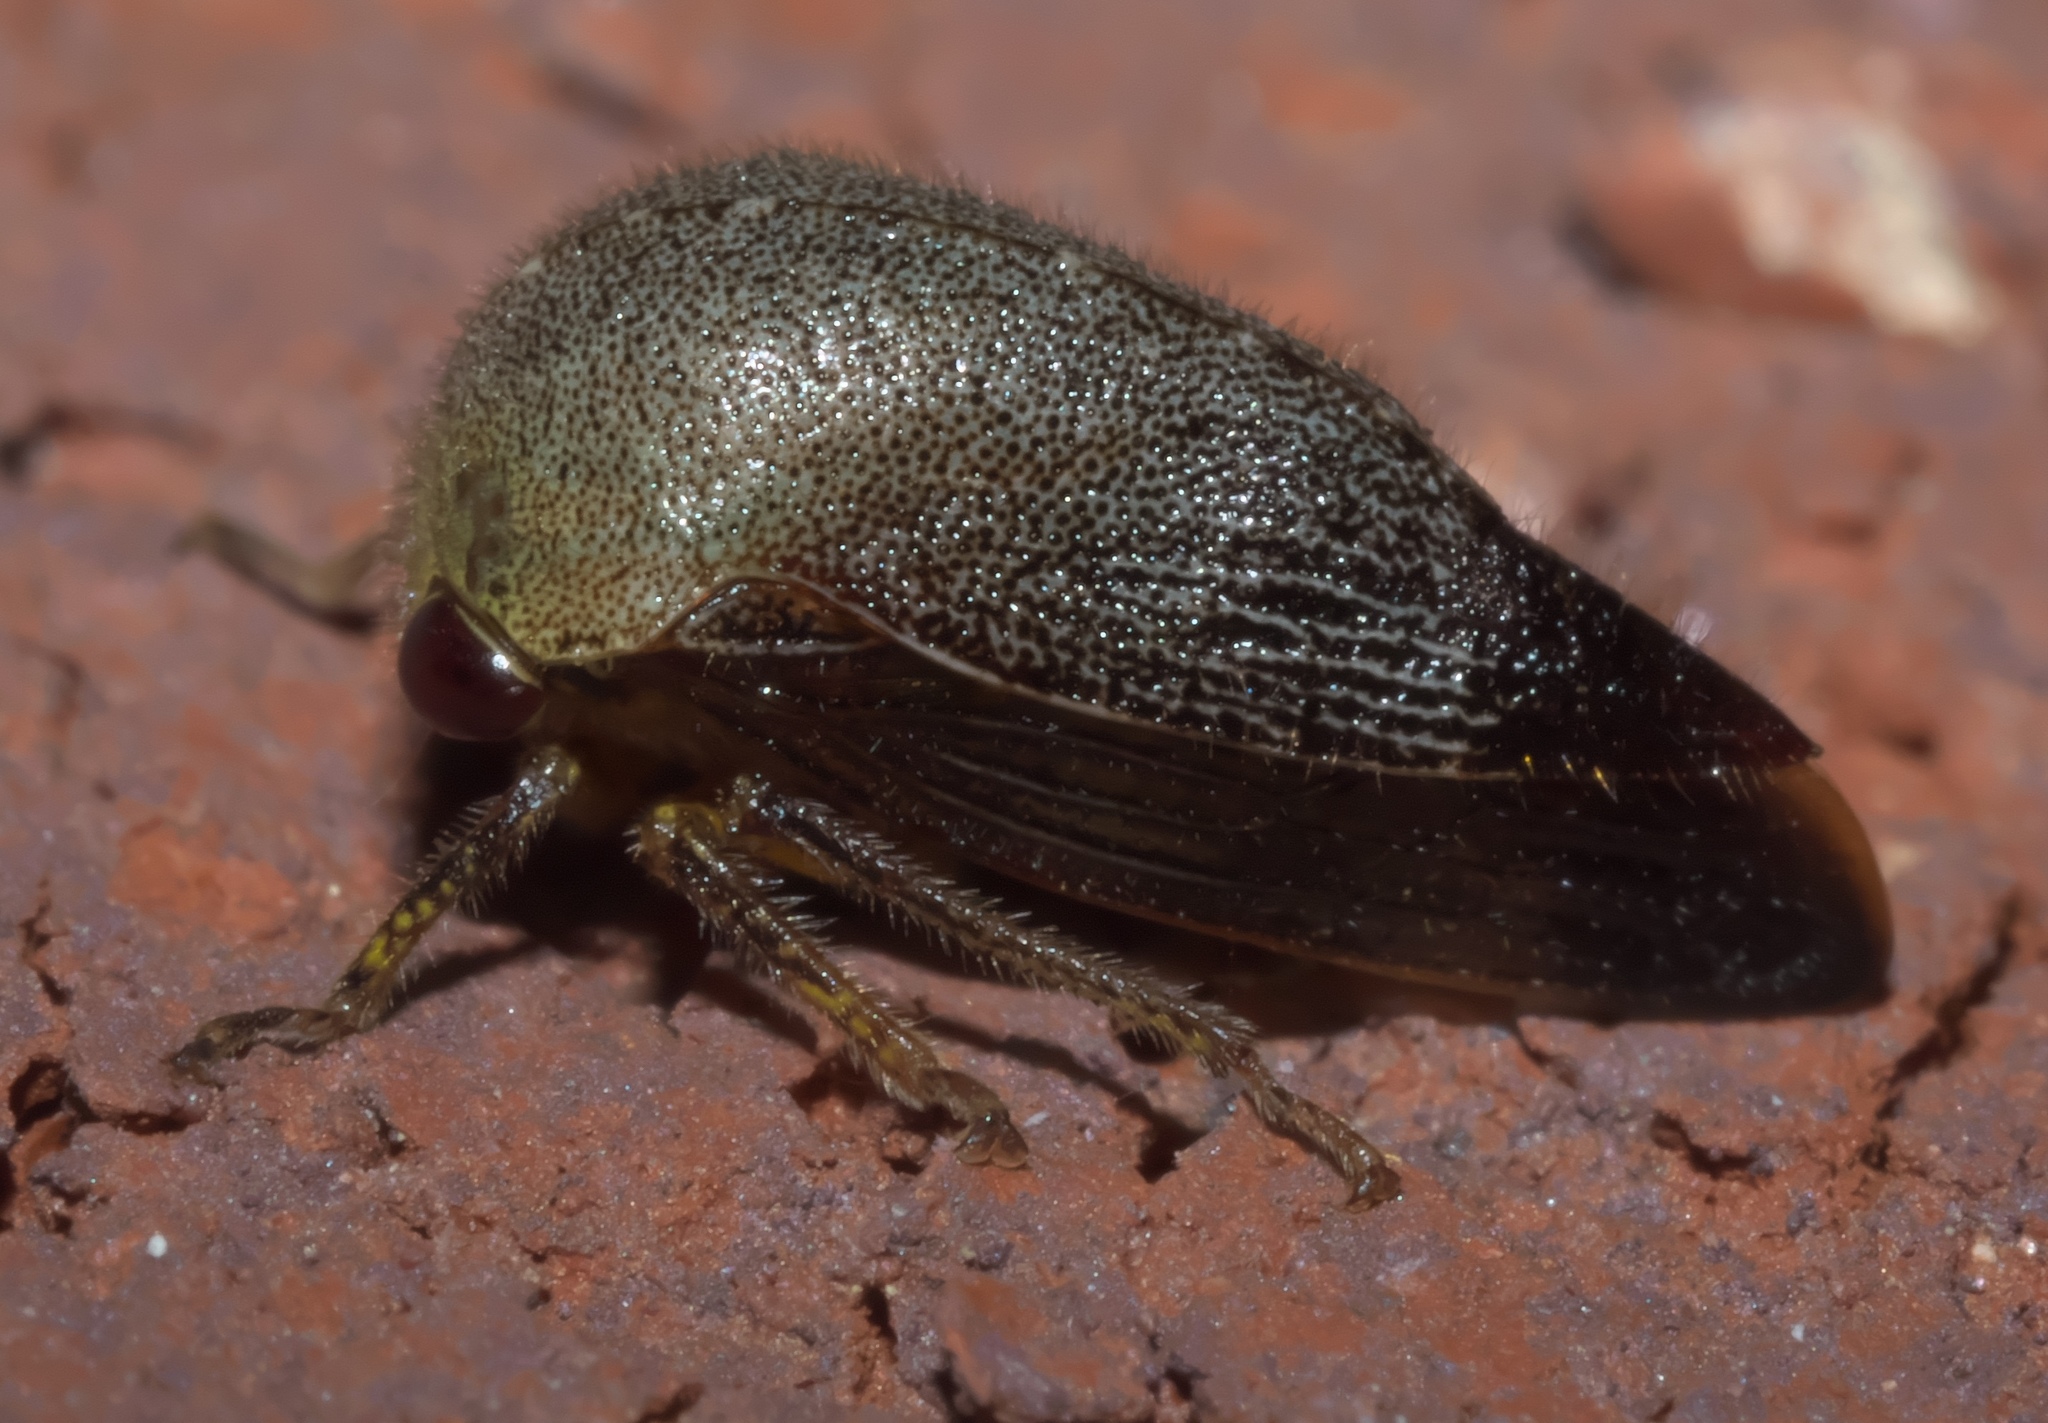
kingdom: Animalia
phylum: Arthropoda
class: Insecta
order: Hemiptera
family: Membracidae
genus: Carynota
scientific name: Carynota mera
